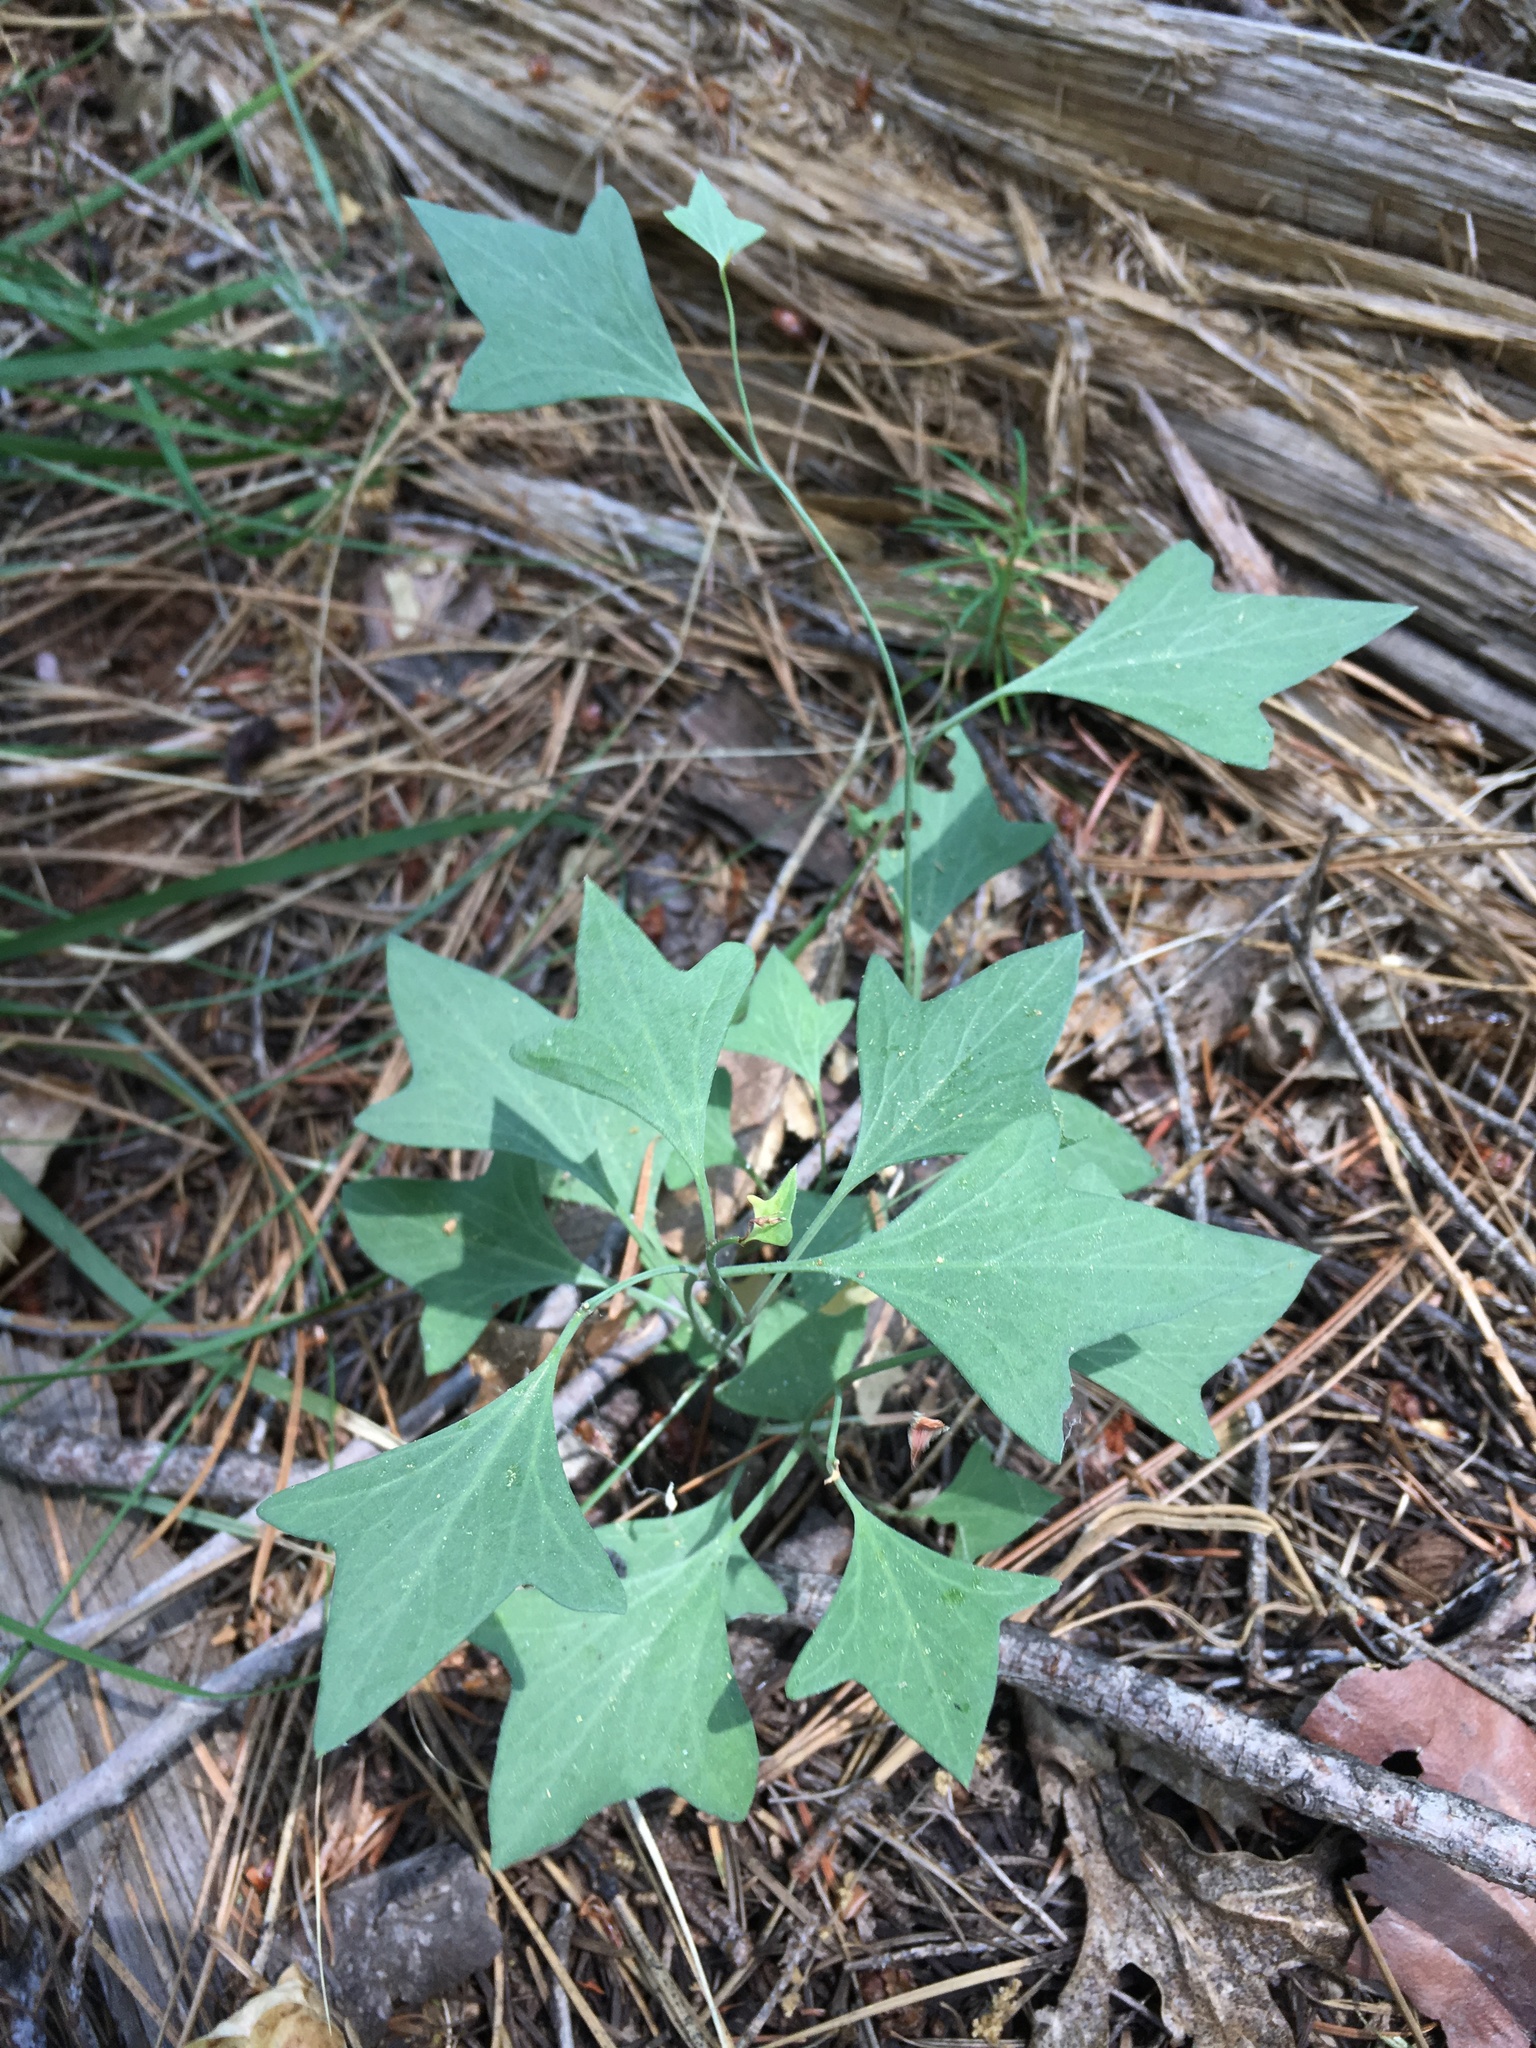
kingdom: Plantae
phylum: Tracheophyta
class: Magnoliopsida
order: Solanales
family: Convolvulaceae
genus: Calystegia
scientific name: Calystegia atriplicifolia
